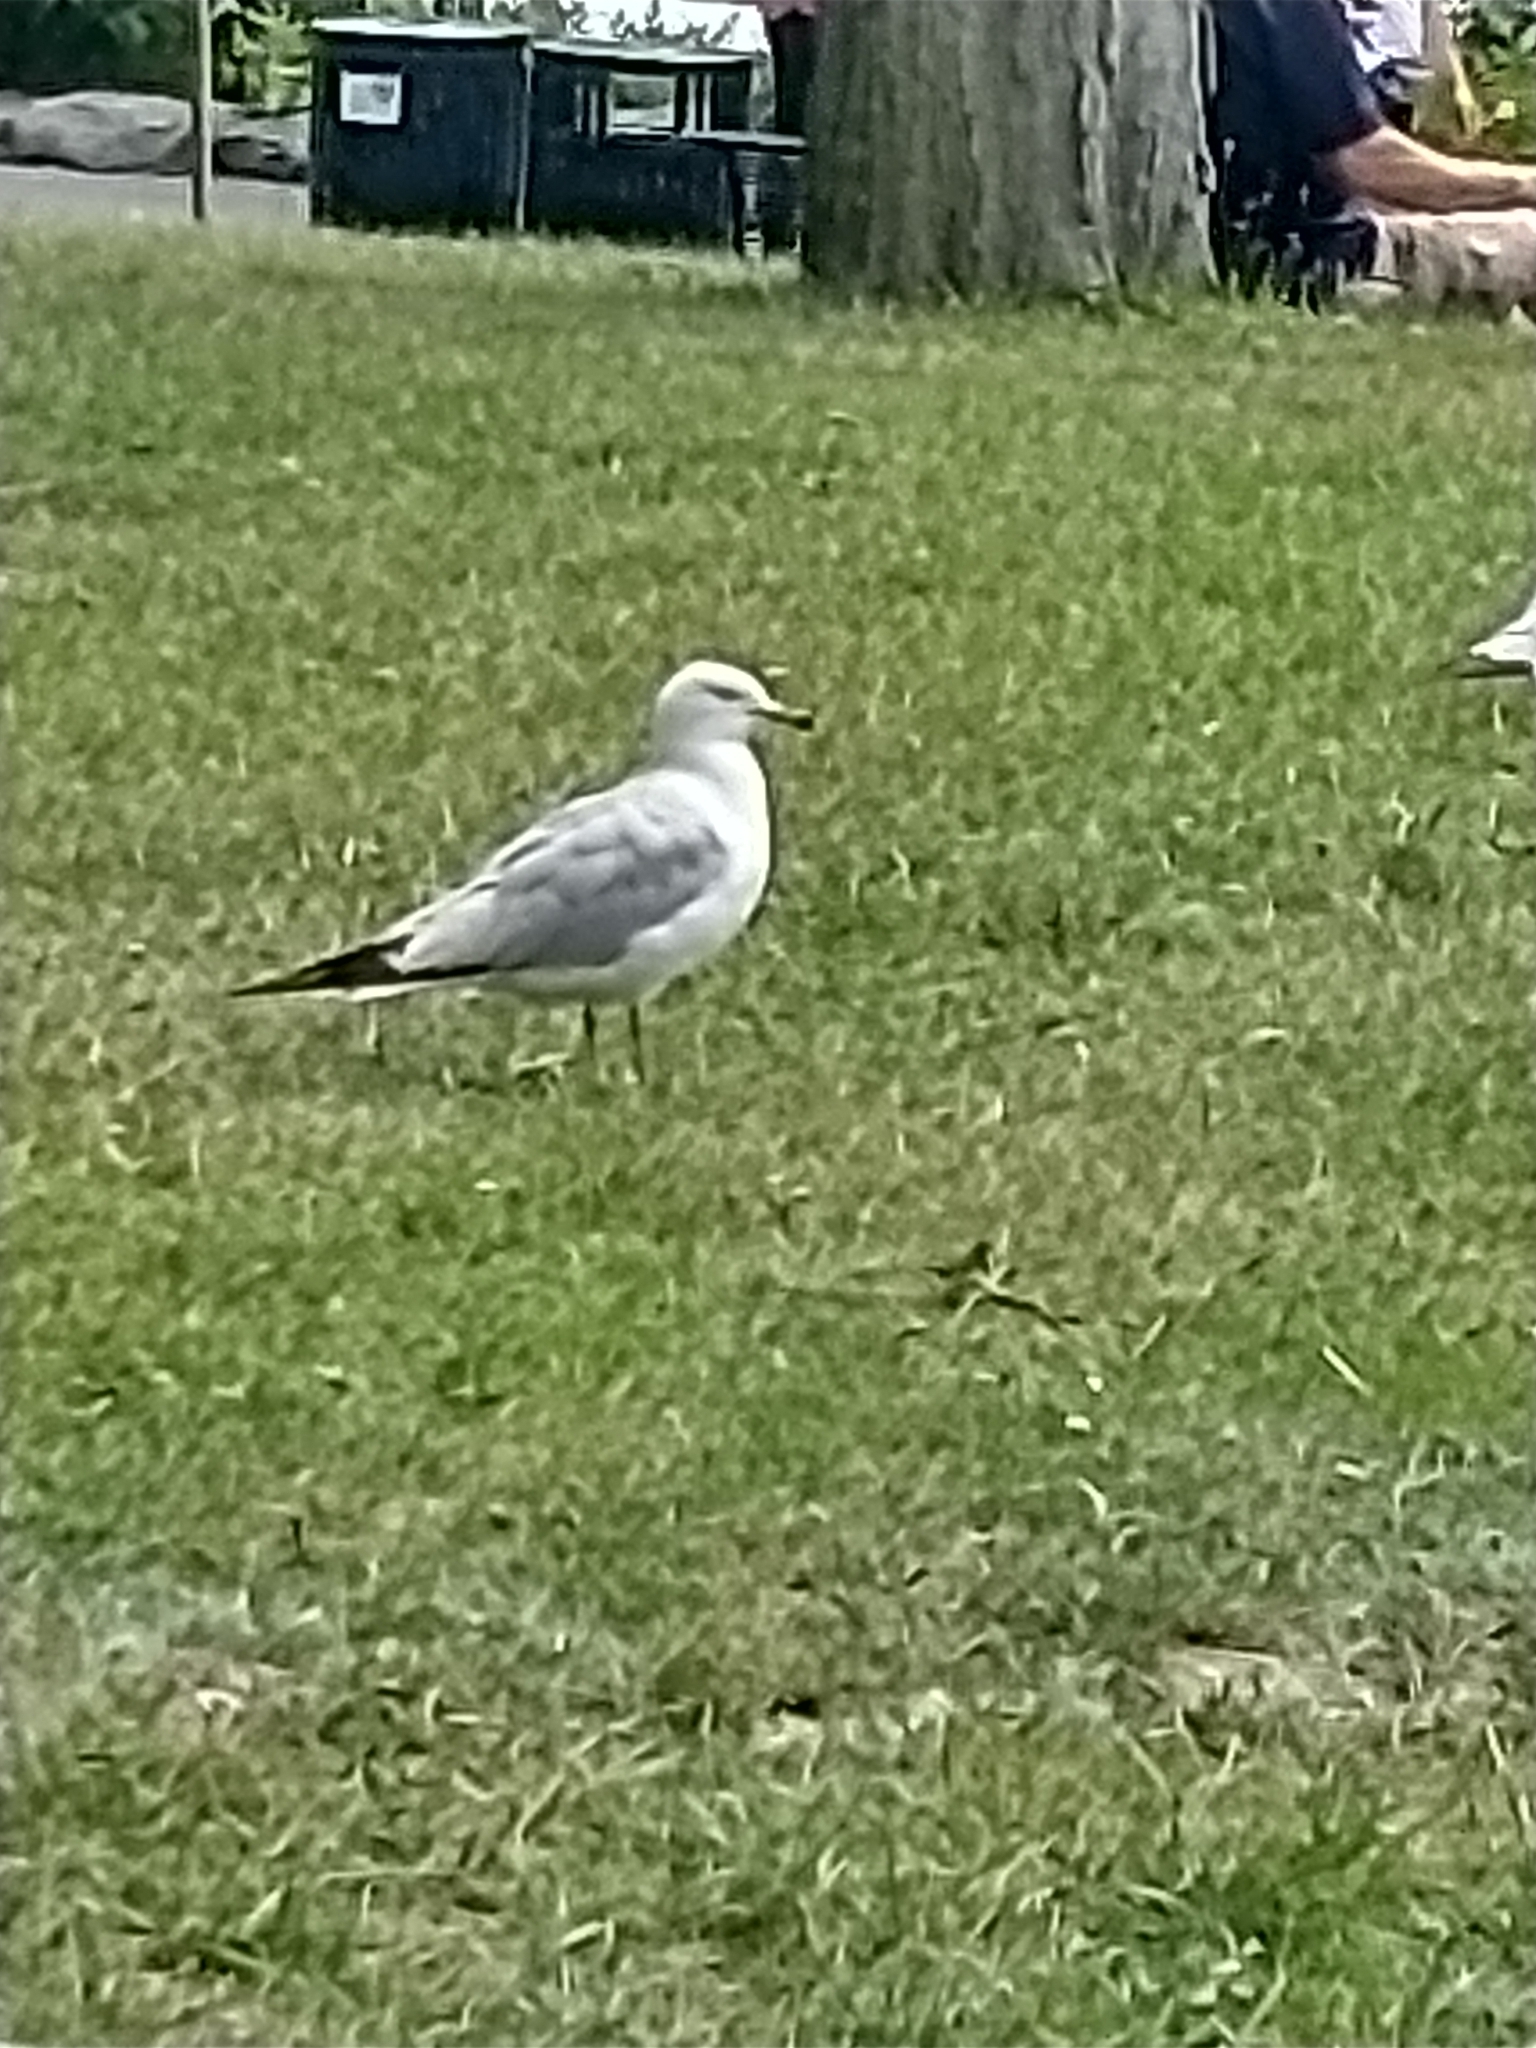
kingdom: Animalia
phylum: Chordata
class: Aves
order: Charadriiformes
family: Laridae
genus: Larus
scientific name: Larus delawarensis
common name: Ring-billed gull
